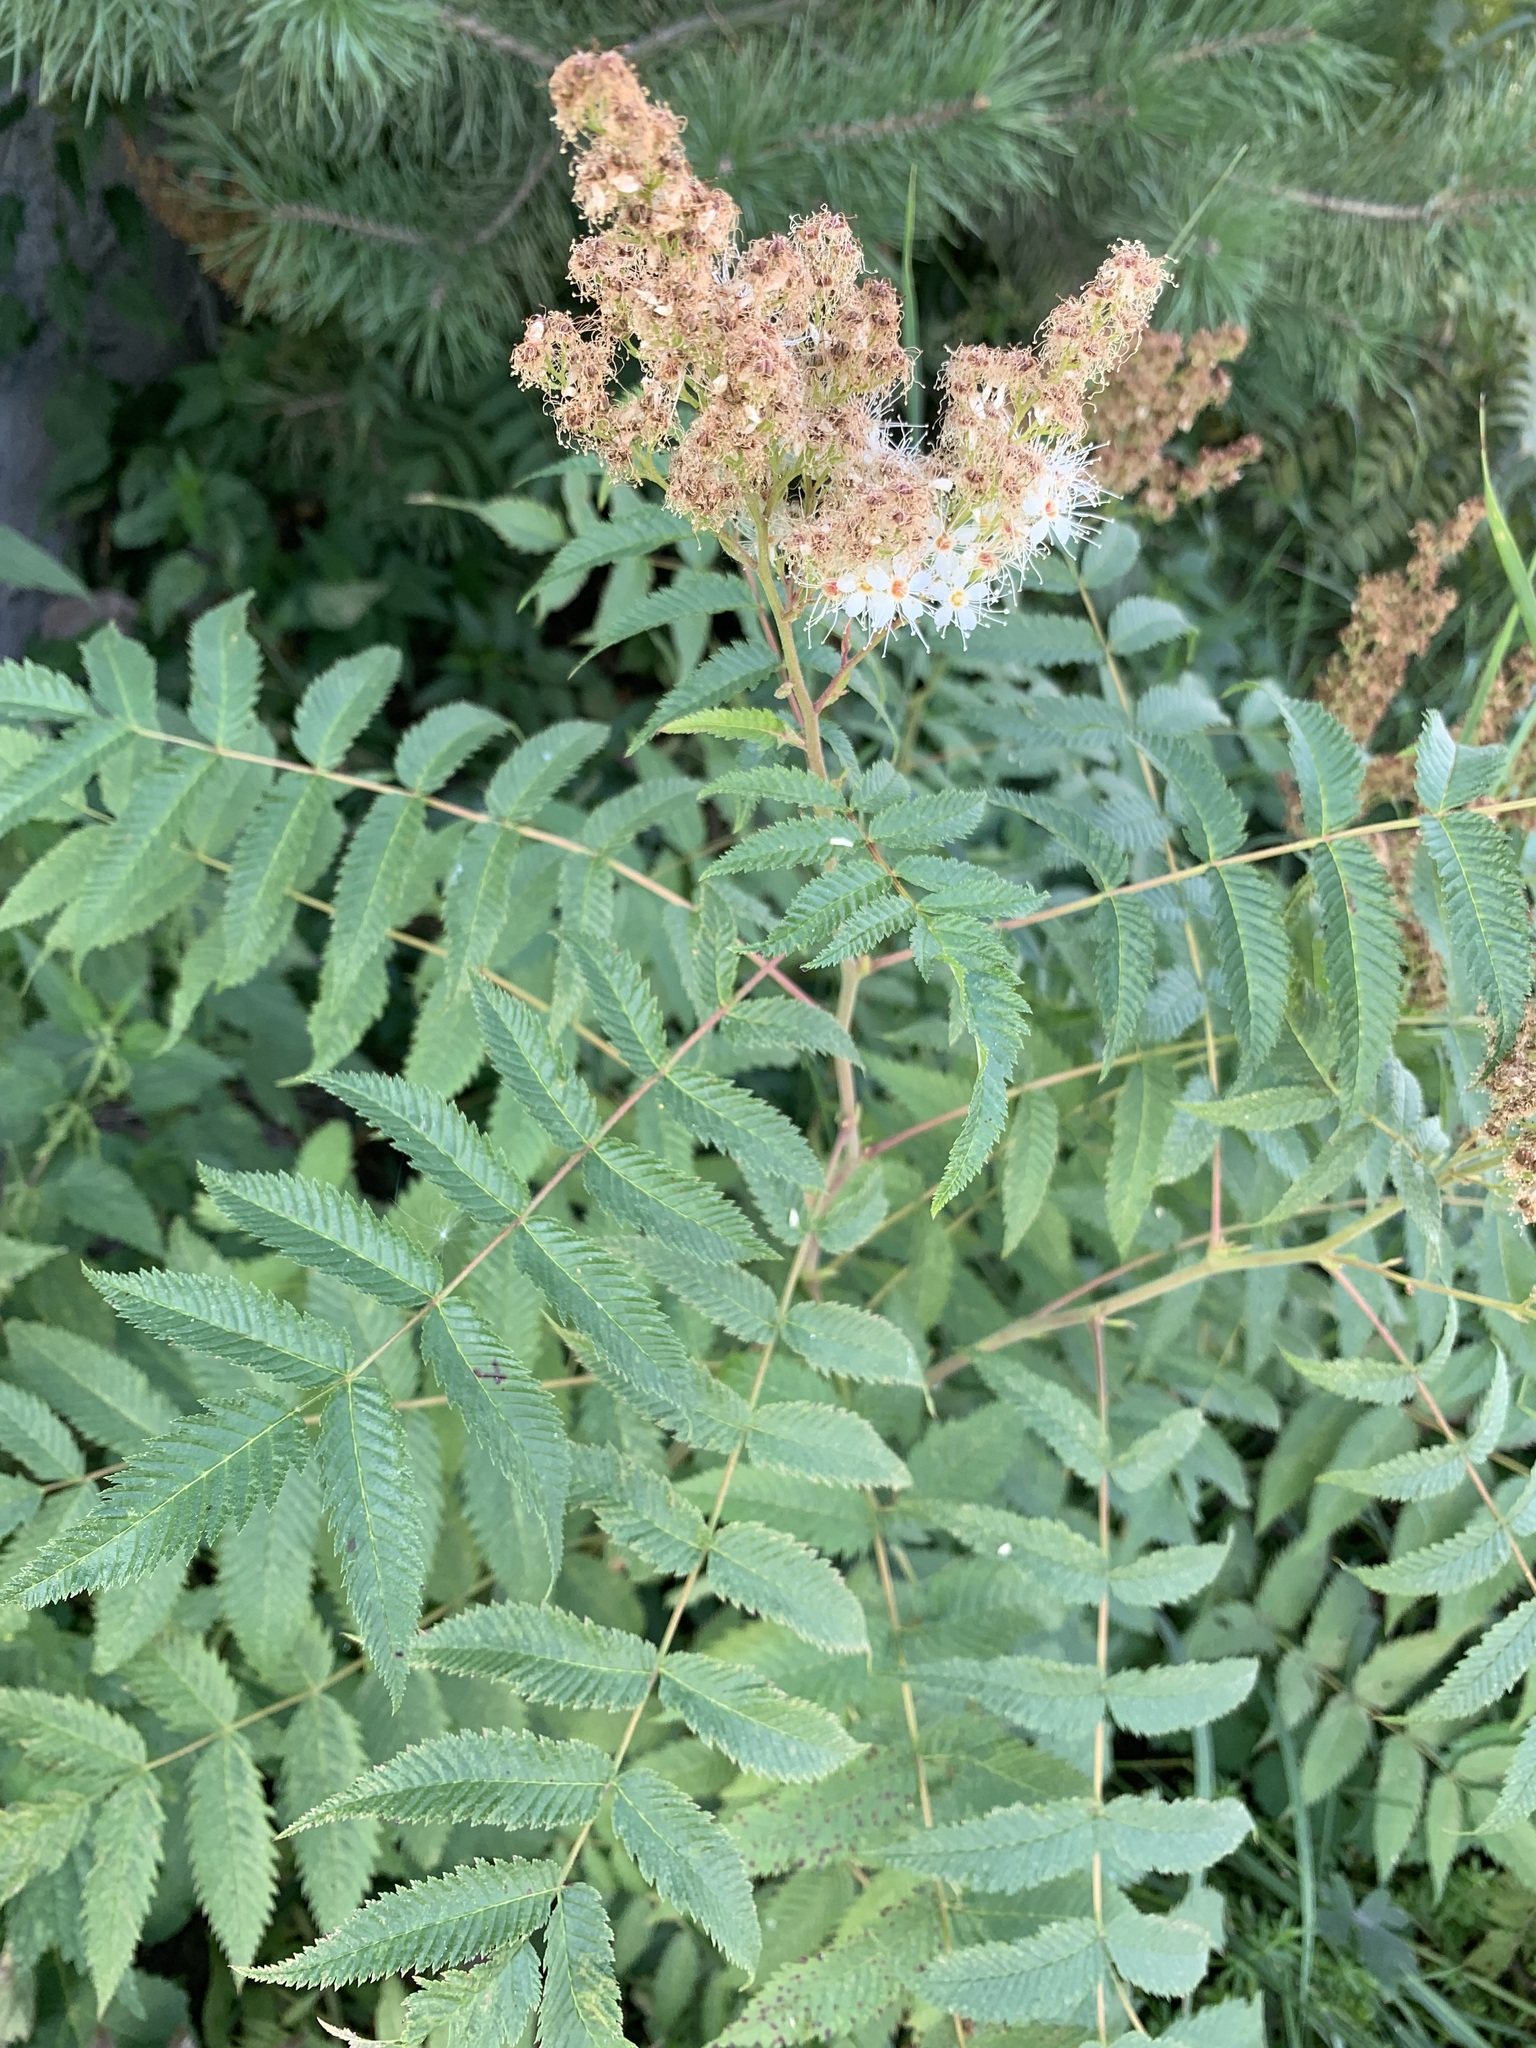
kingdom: Plantae
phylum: Tracheophyta
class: Magnoliopsida
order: Rosales
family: Rosaceae
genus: Sorbaria
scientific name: Sorbaria sorbifolia
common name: False spiraea
